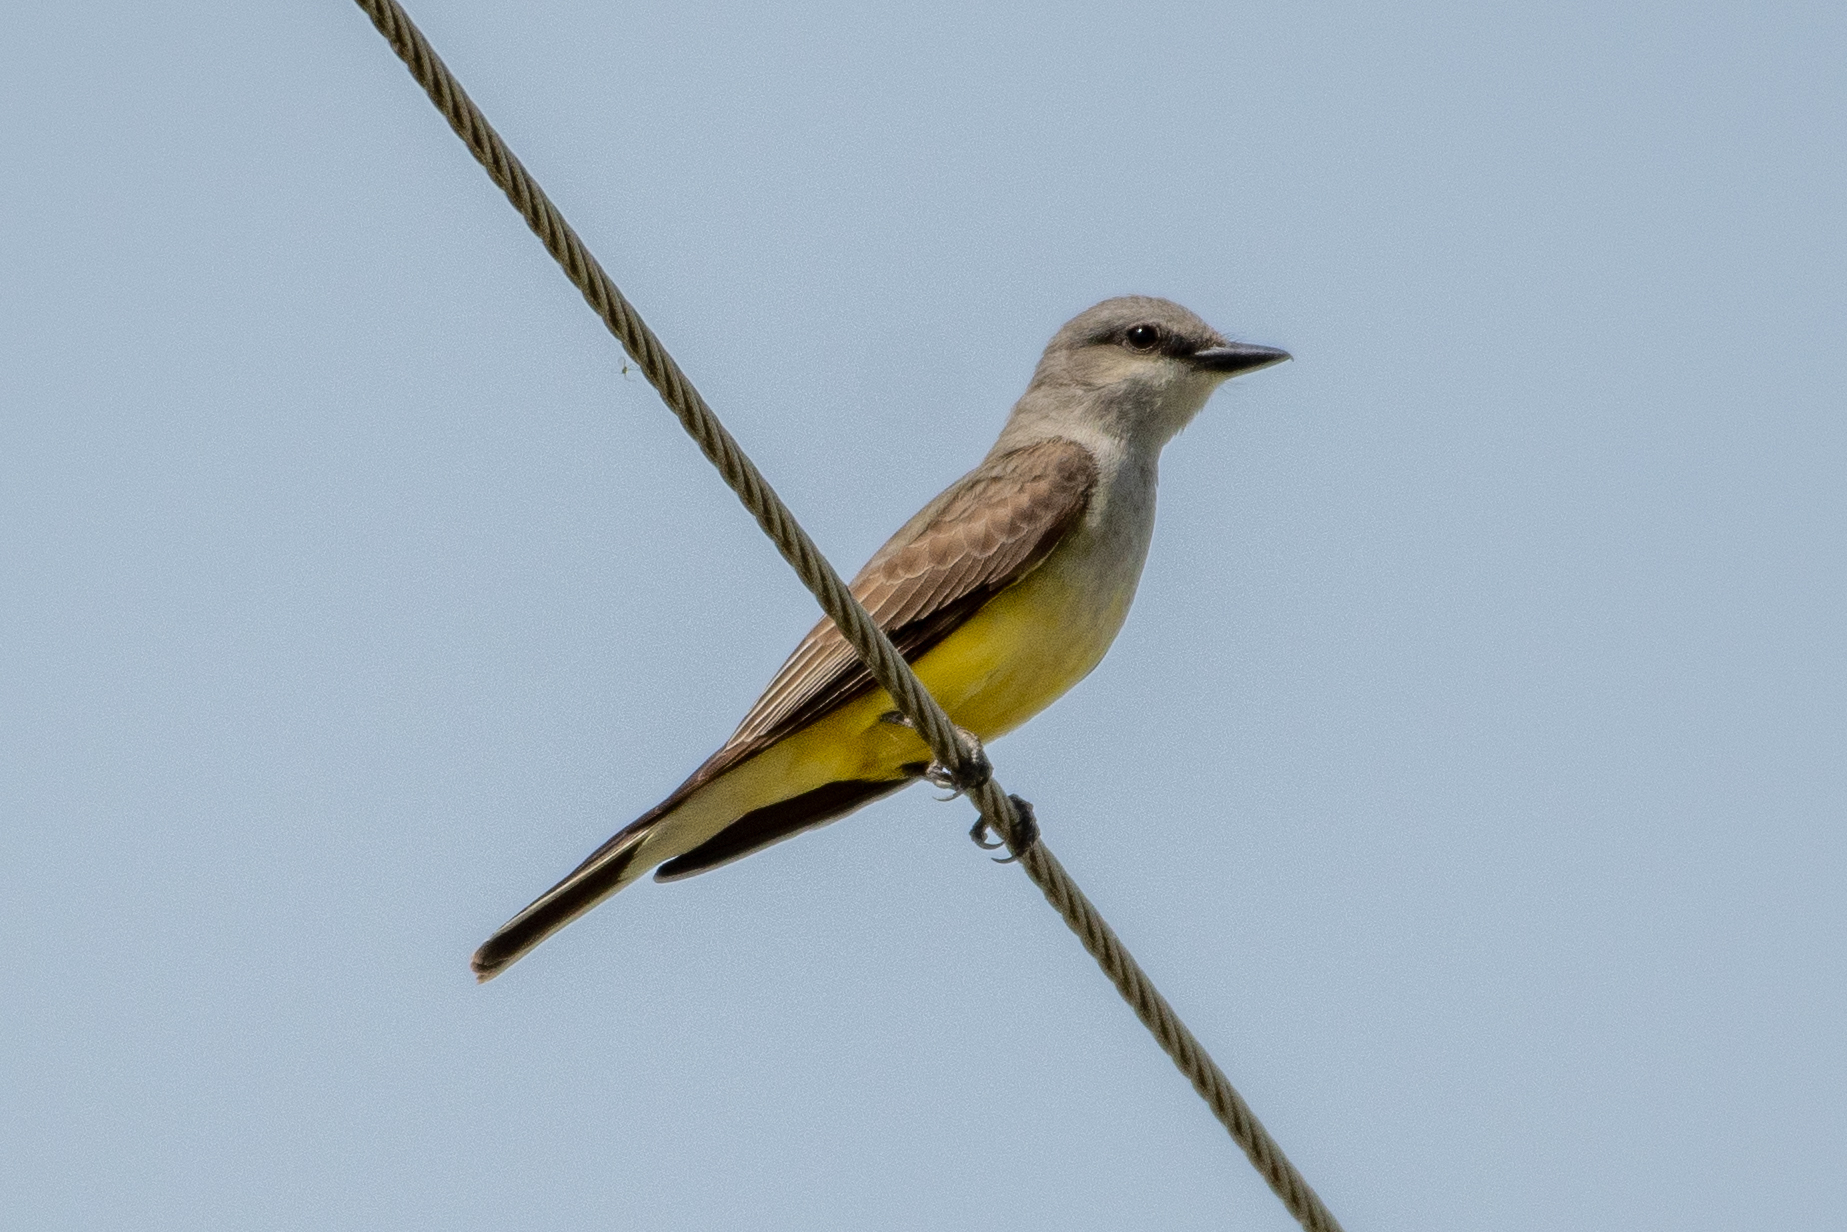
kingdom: Animalia
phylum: Chordata
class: Aves
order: Passeriformes
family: Tyrannidae
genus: Tyrannus
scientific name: Tyrannus verticalis
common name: Western kingbird
